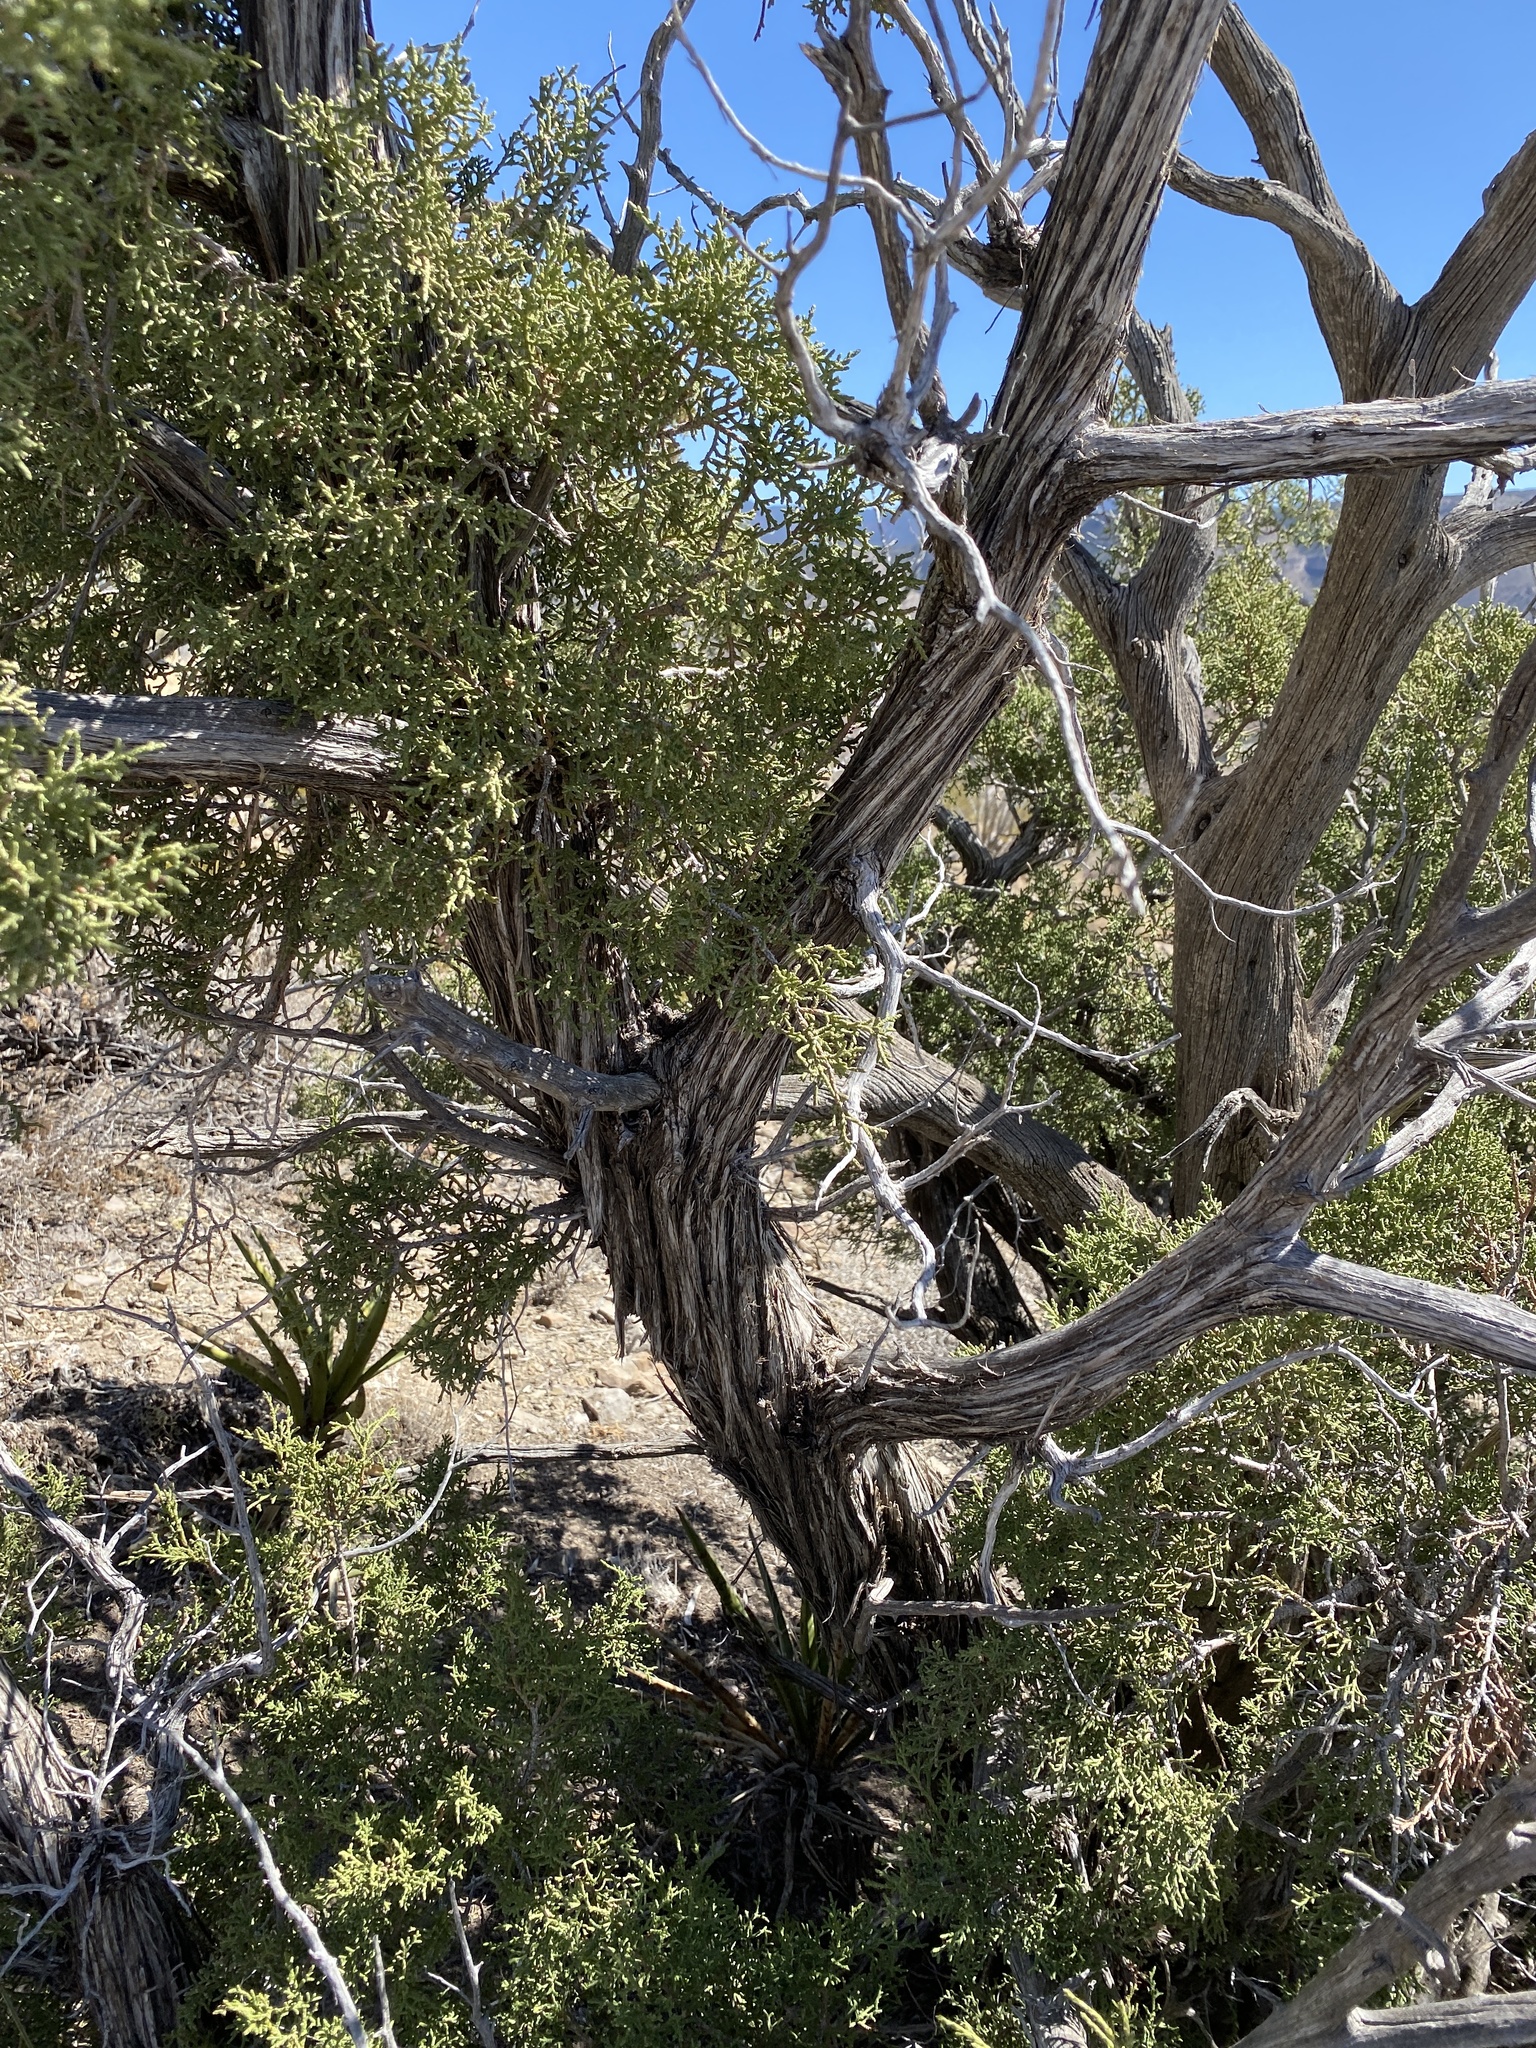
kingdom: Plantae
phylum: Tracheophyta
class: Pinopsida
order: Pinales
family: Cupressaceae
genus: Juniperus
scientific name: Juniperus monosperma
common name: One-seed juniper
